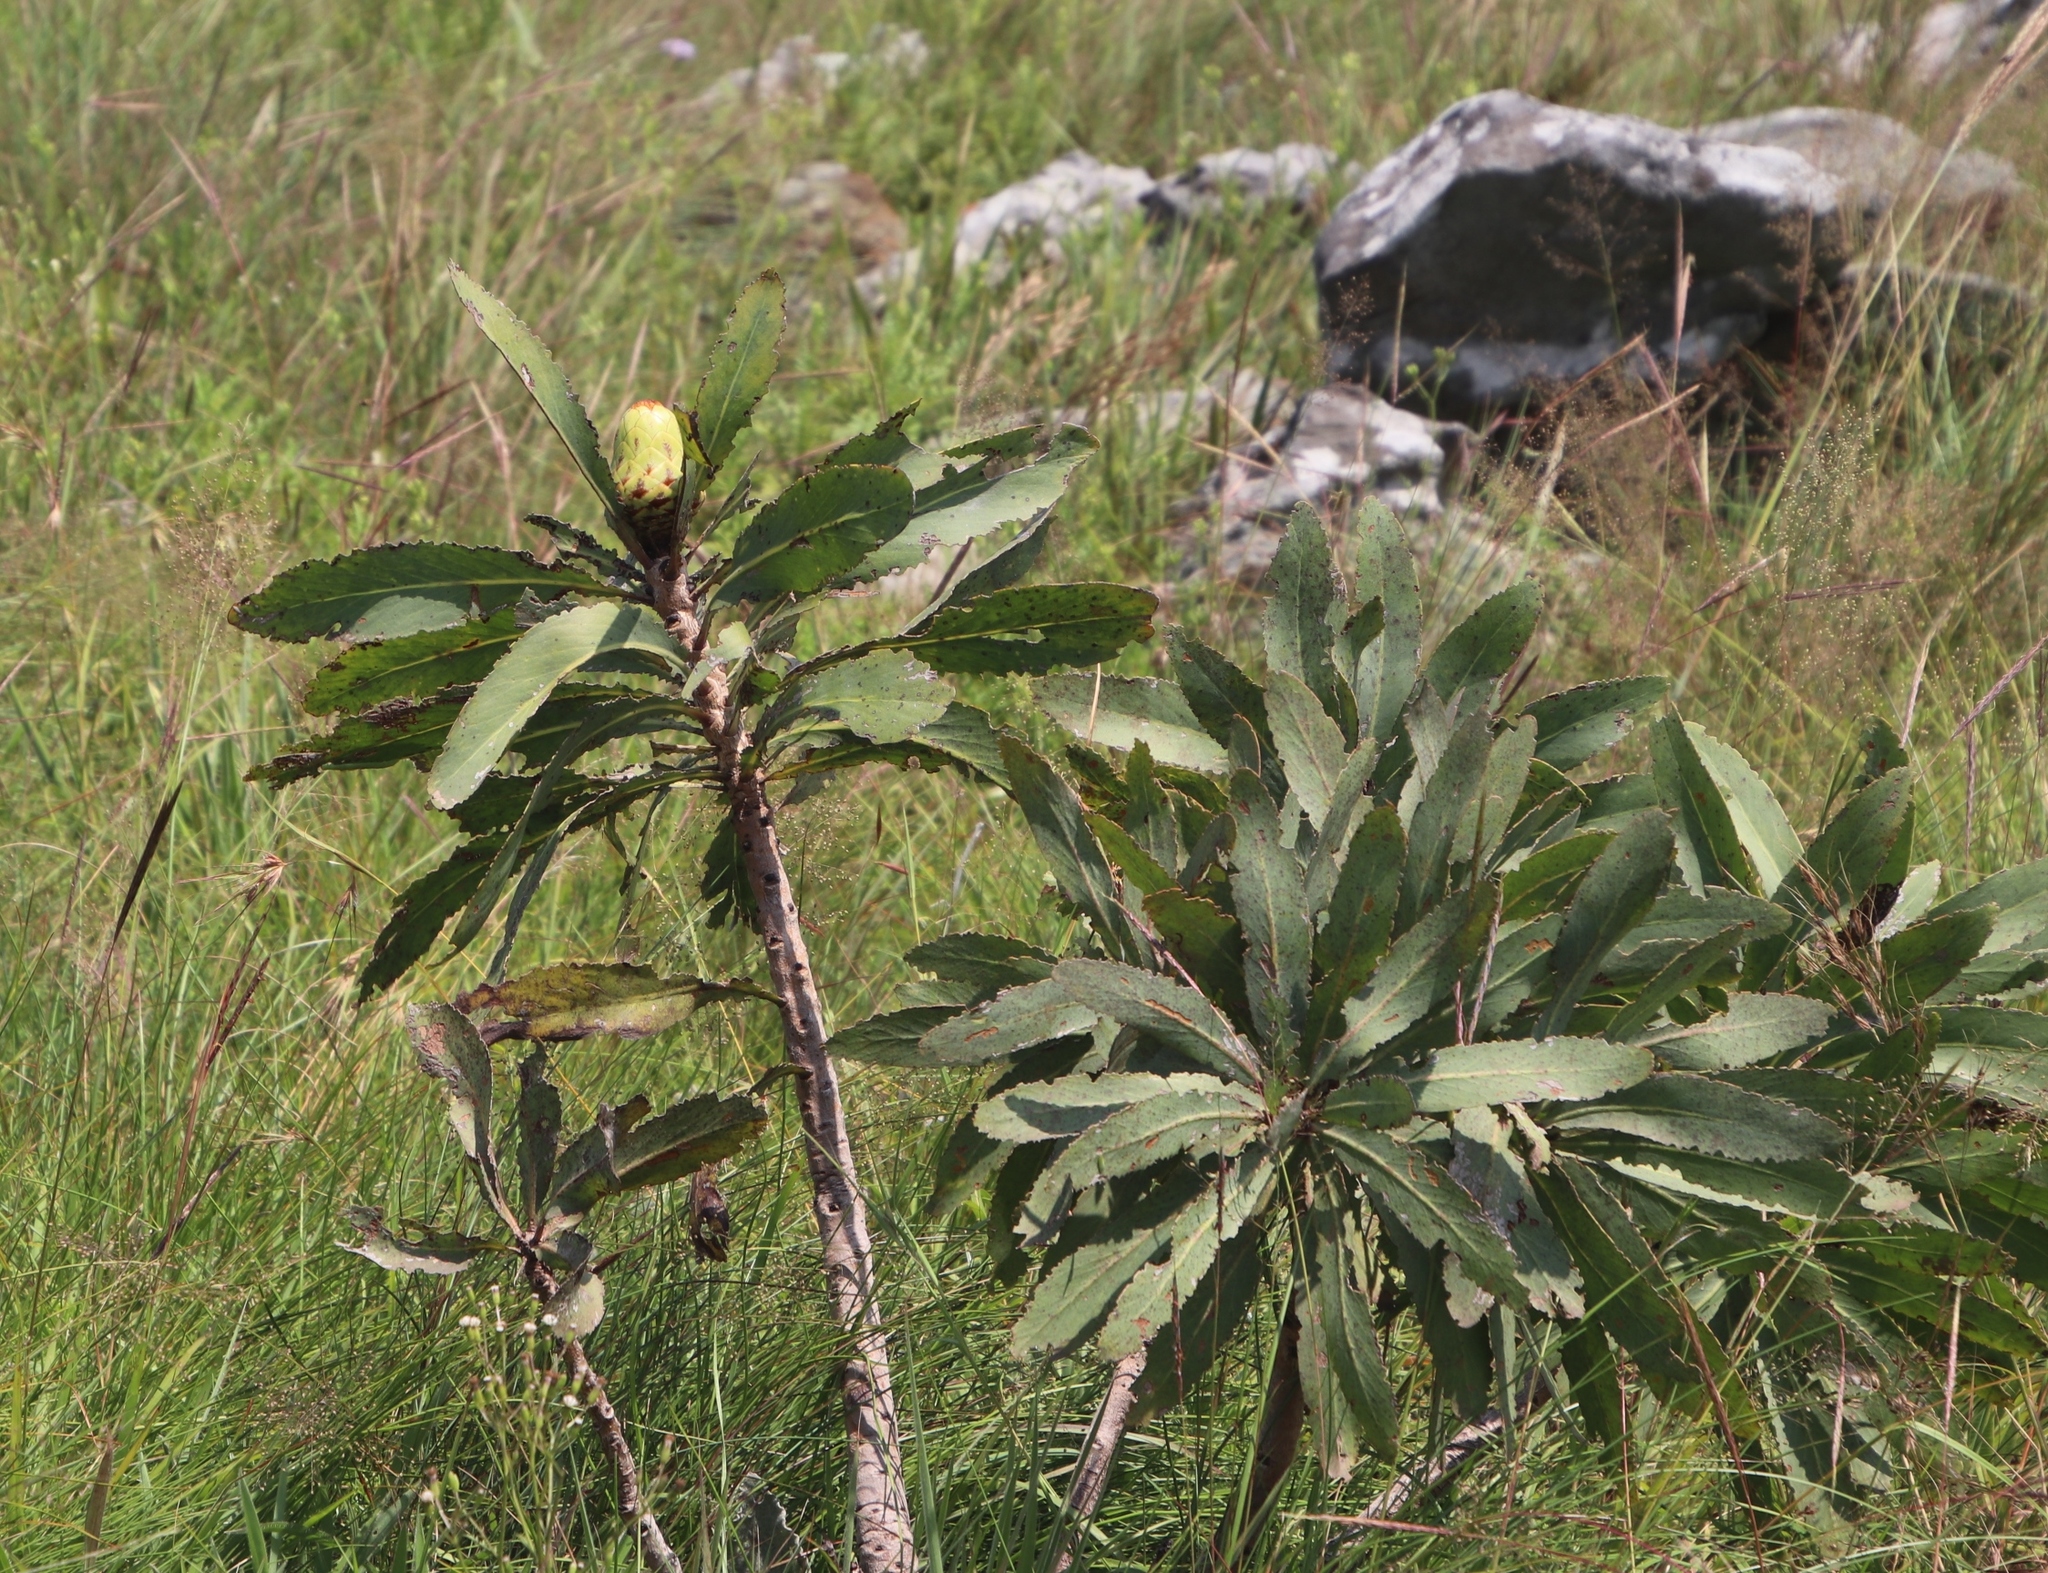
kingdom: Plantae
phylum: Tracheophyta
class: Magnoliopsida
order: Proteales
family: Proteaceae
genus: Protea
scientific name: Protea caffra
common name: Common sugarbush
